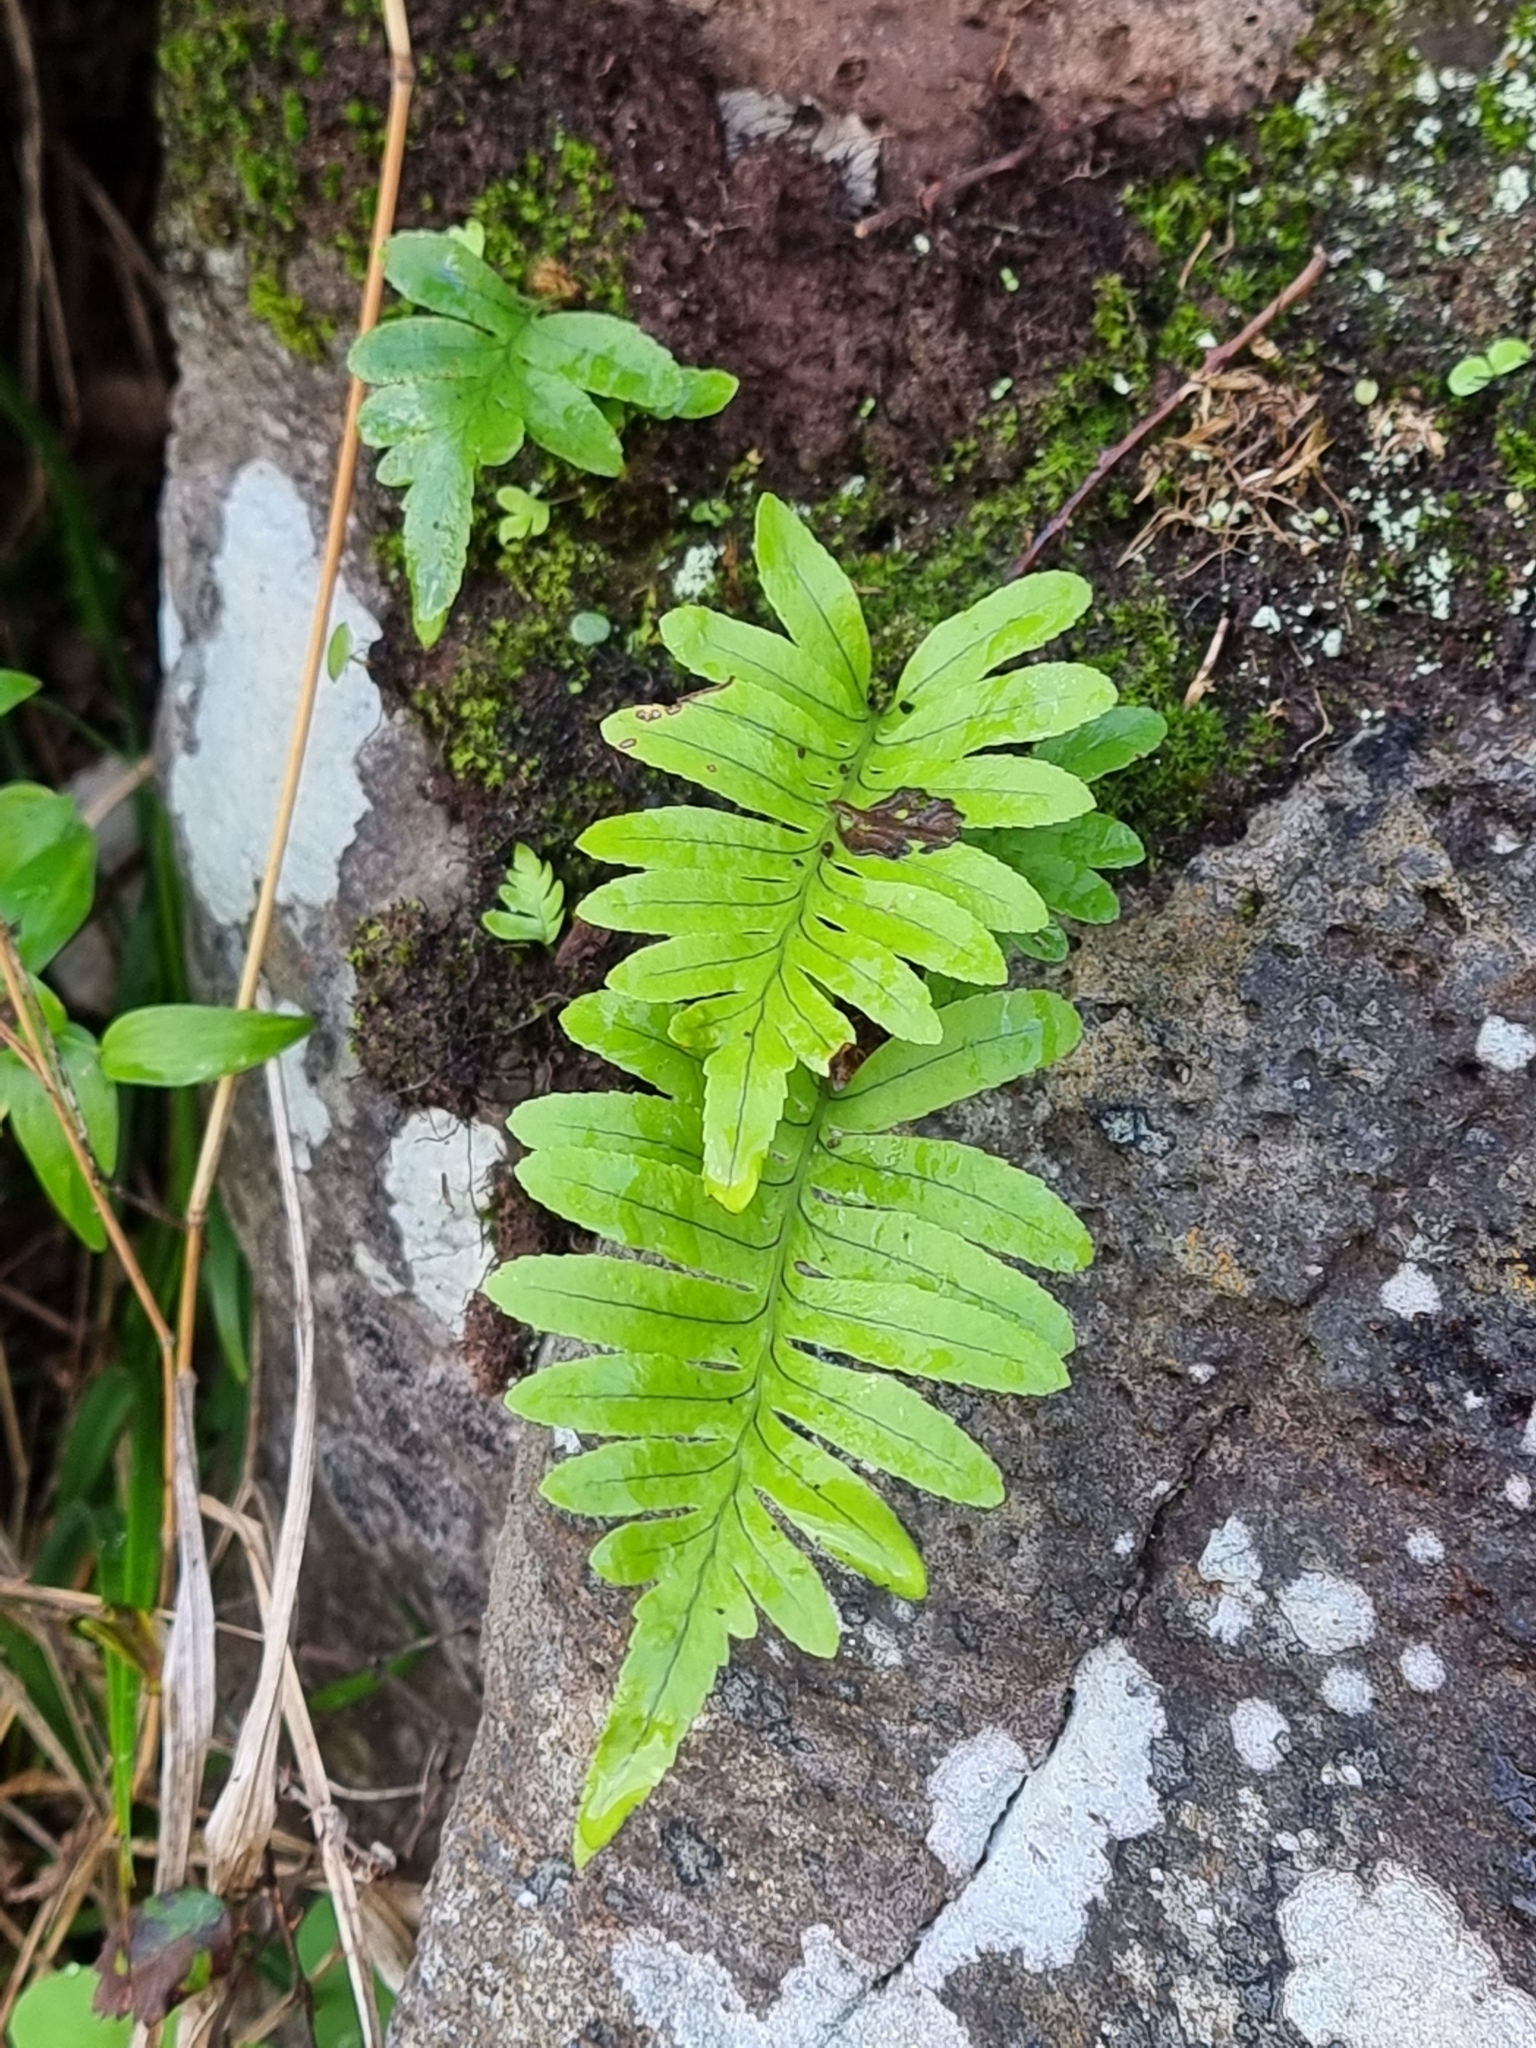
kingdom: Plantae
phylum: Tracheophyta
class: Polypodiopsida
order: Polypodiales
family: Polypodiaceae
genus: Polypodium
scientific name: Polypodium macaronesicum
